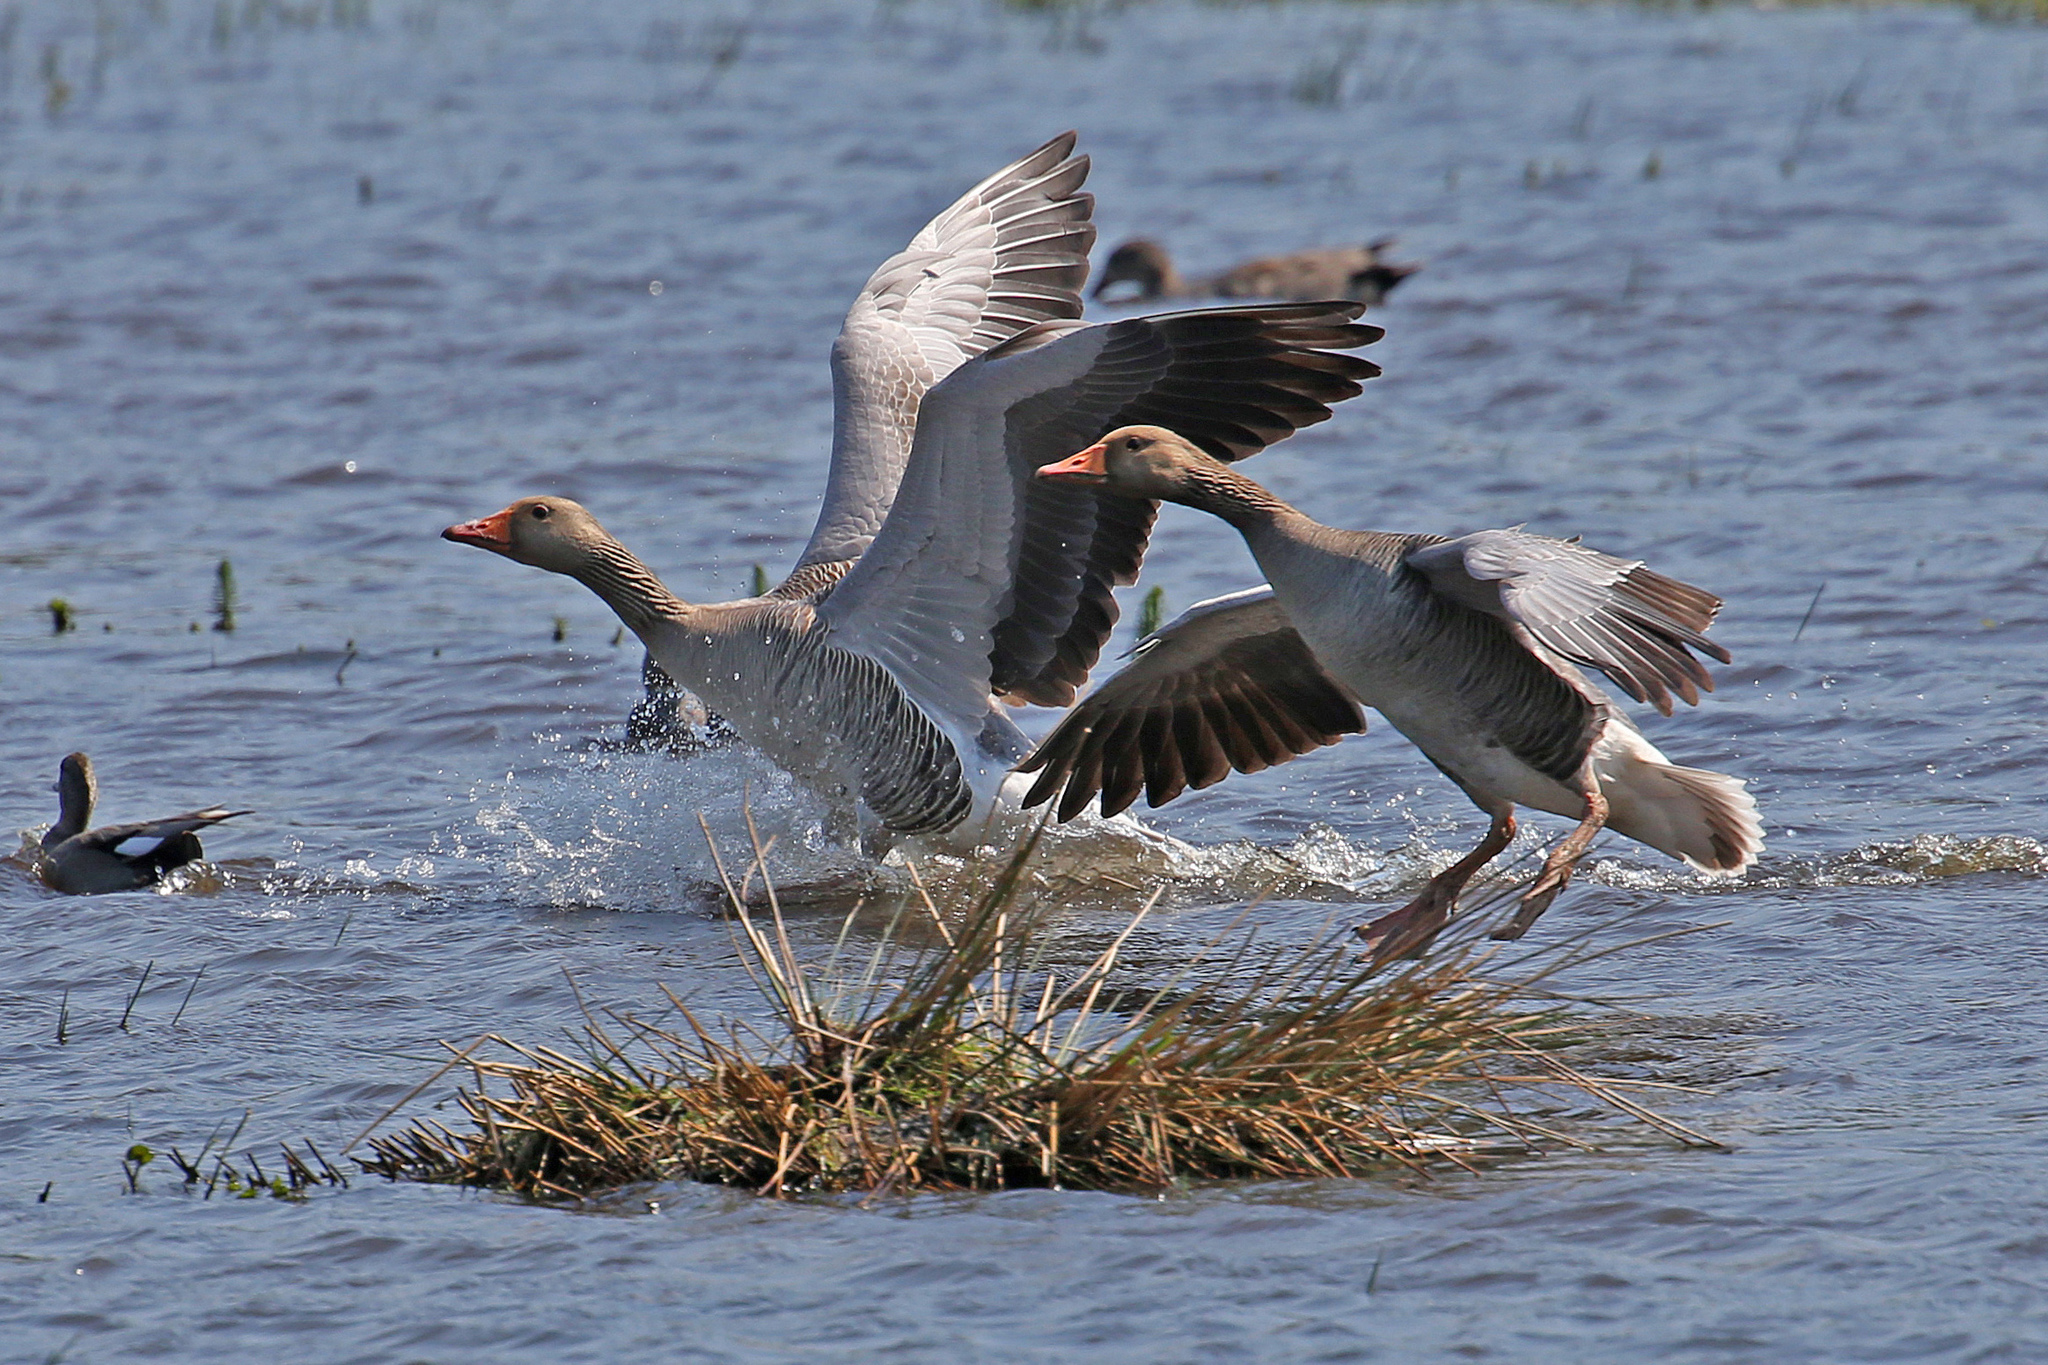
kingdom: Animalia
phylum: Chordata
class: Aves
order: Anseriformes
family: Anatidae
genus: Anser
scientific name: Anser anser
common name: Greylag goose
